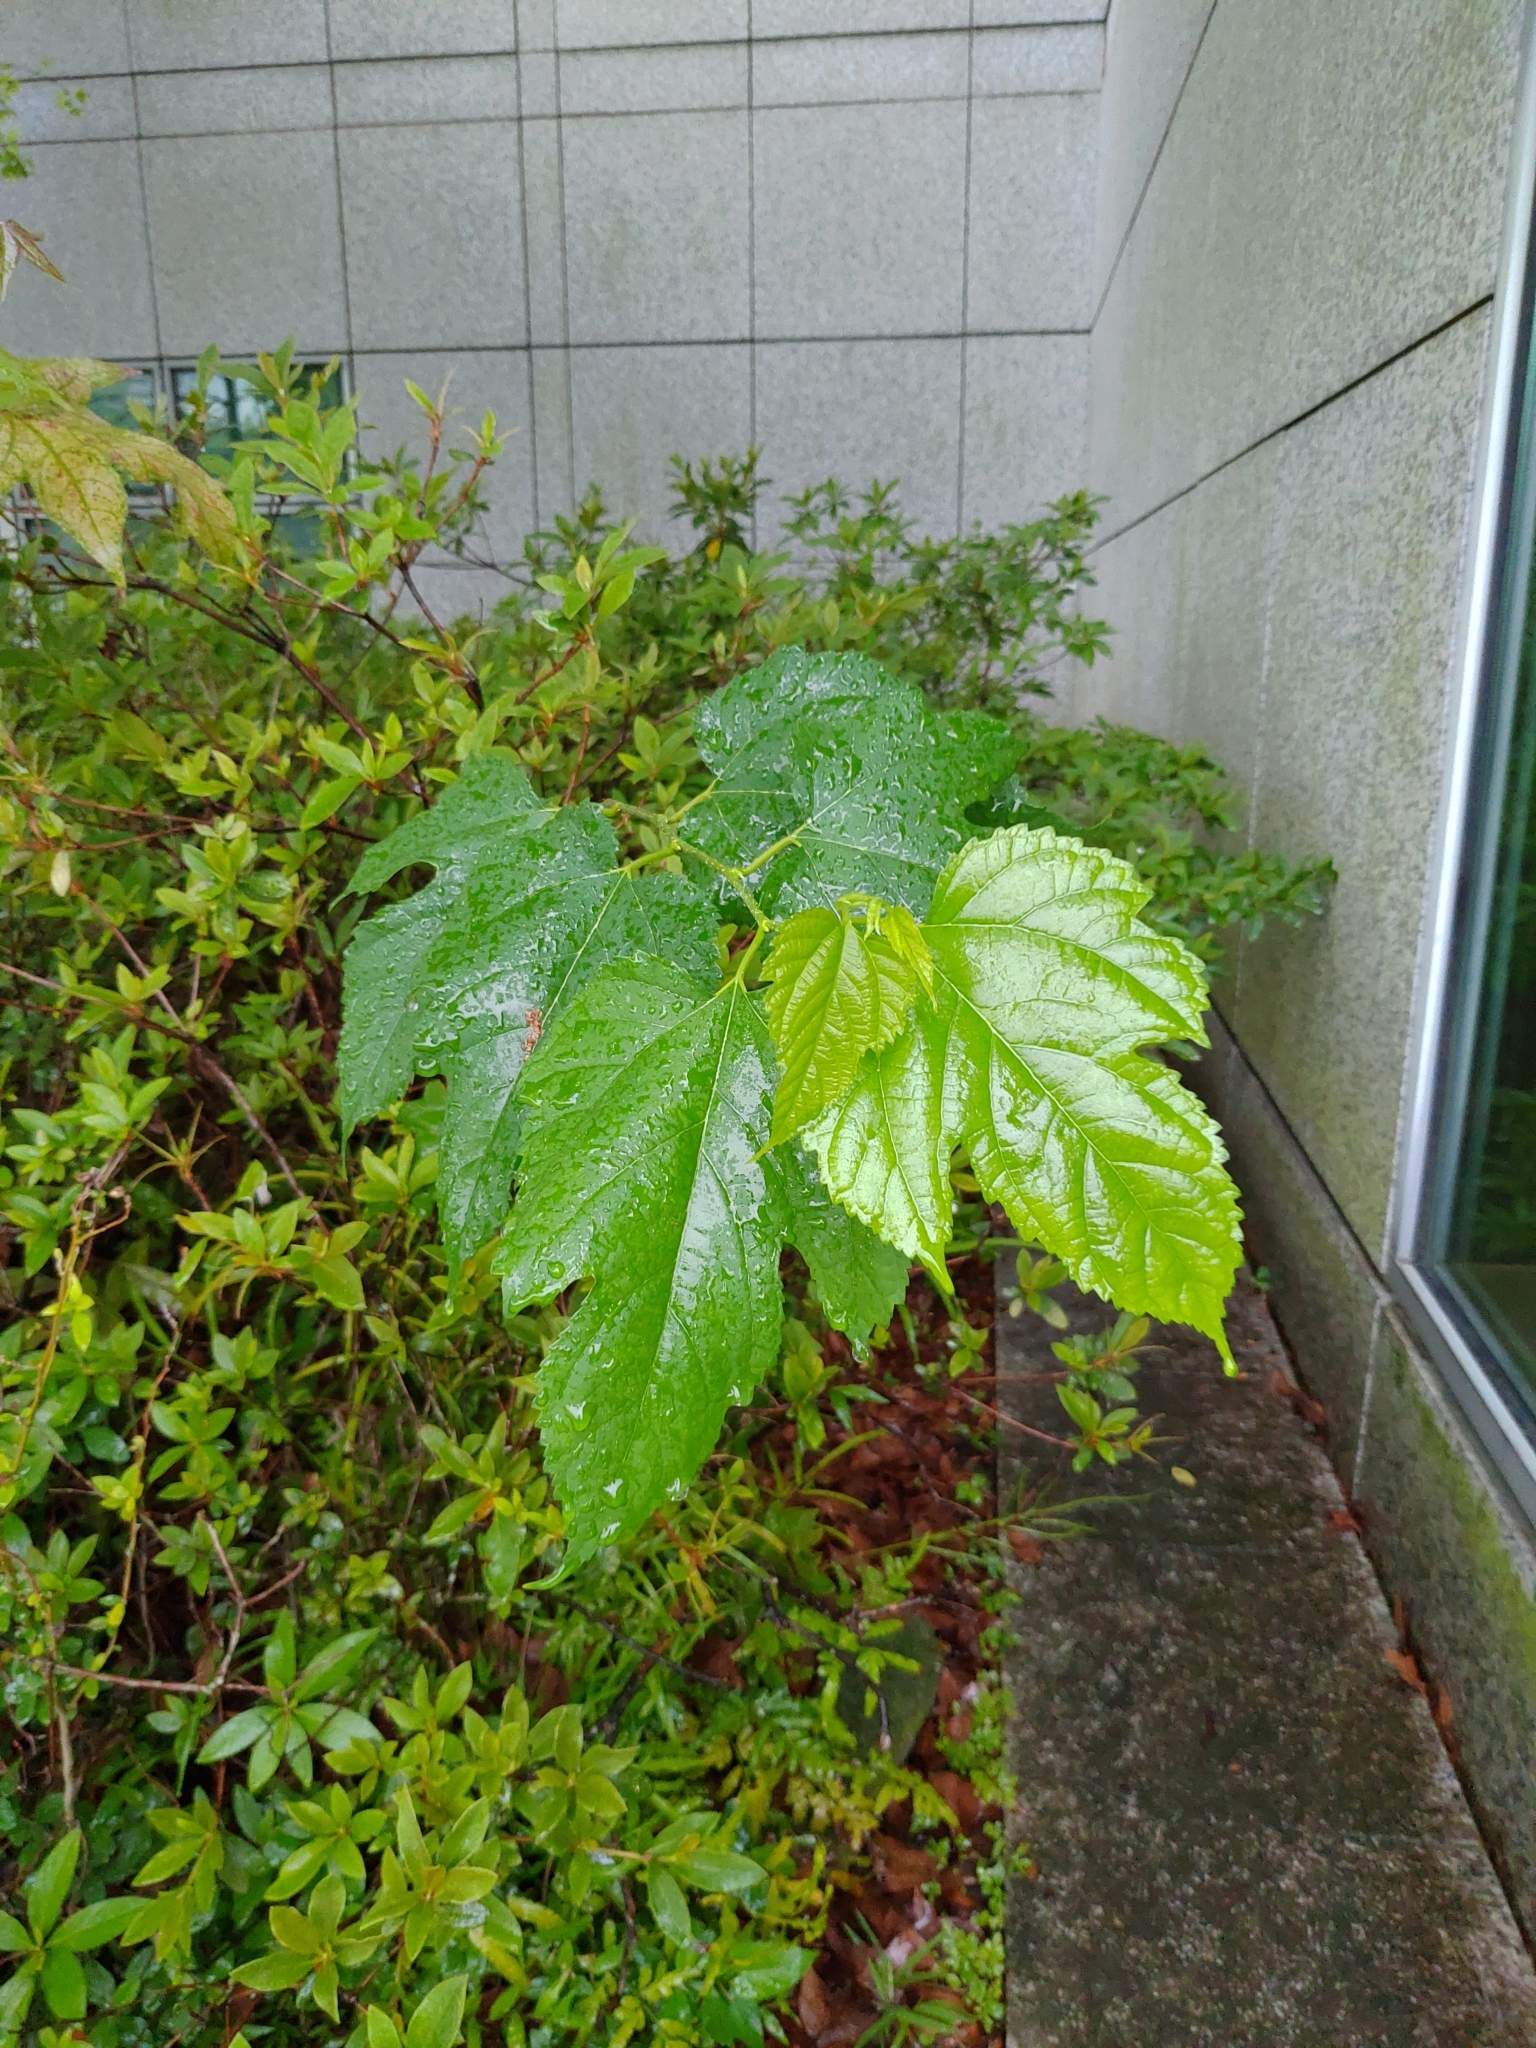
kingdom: Plantae
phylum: Tracheophyta
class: Magnoliopsida
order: Rosales
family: Moraceae
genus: Morus
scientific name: Morus indica
